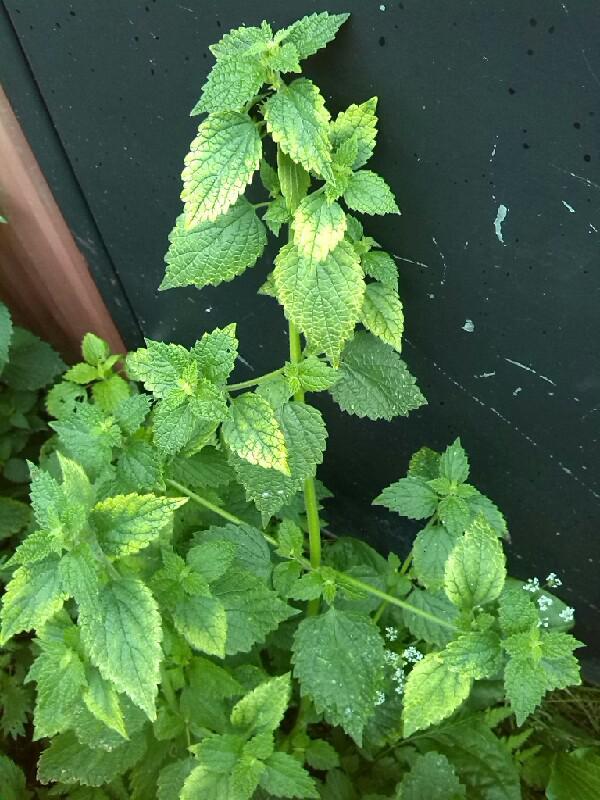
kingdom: Plantae
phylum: Tracheophyta
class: Magnoliopsida
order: Lamiales
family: Lamiaceae
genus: Ballota
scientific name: Ballota nigra
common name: Black horehound
